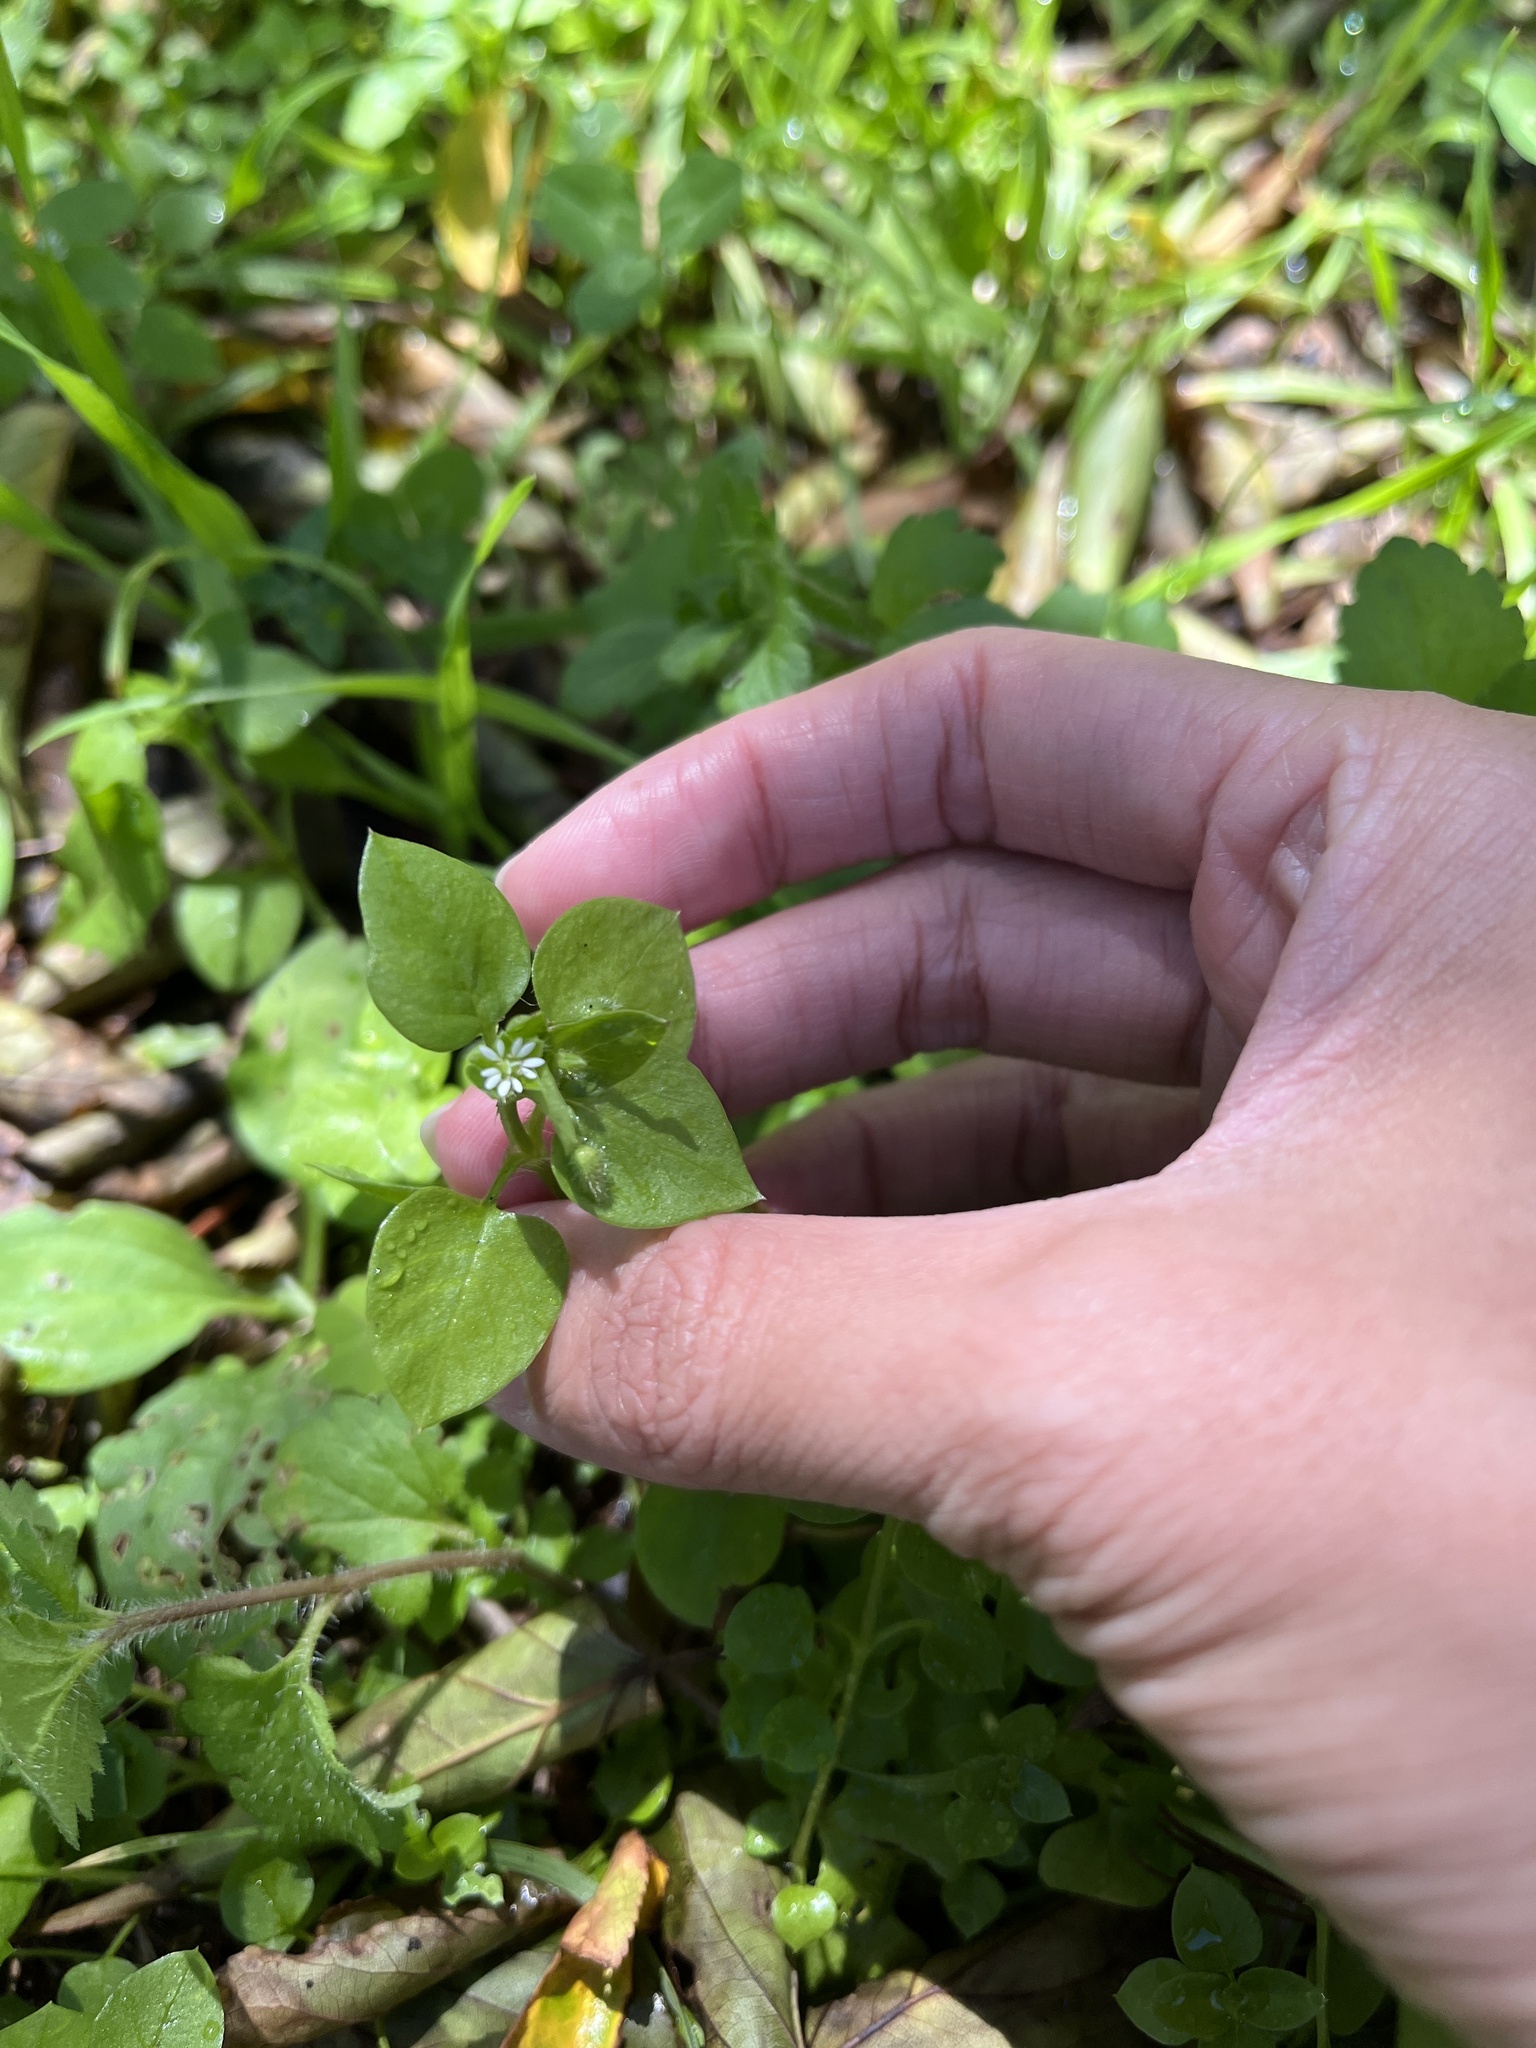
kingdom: Plantae
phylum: Tracheophyta
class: Magnoliopsida
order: Caryophyllales
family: Caryophyllaceae
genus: Stellaria
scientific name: Stellaria media
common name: Common chickweed
